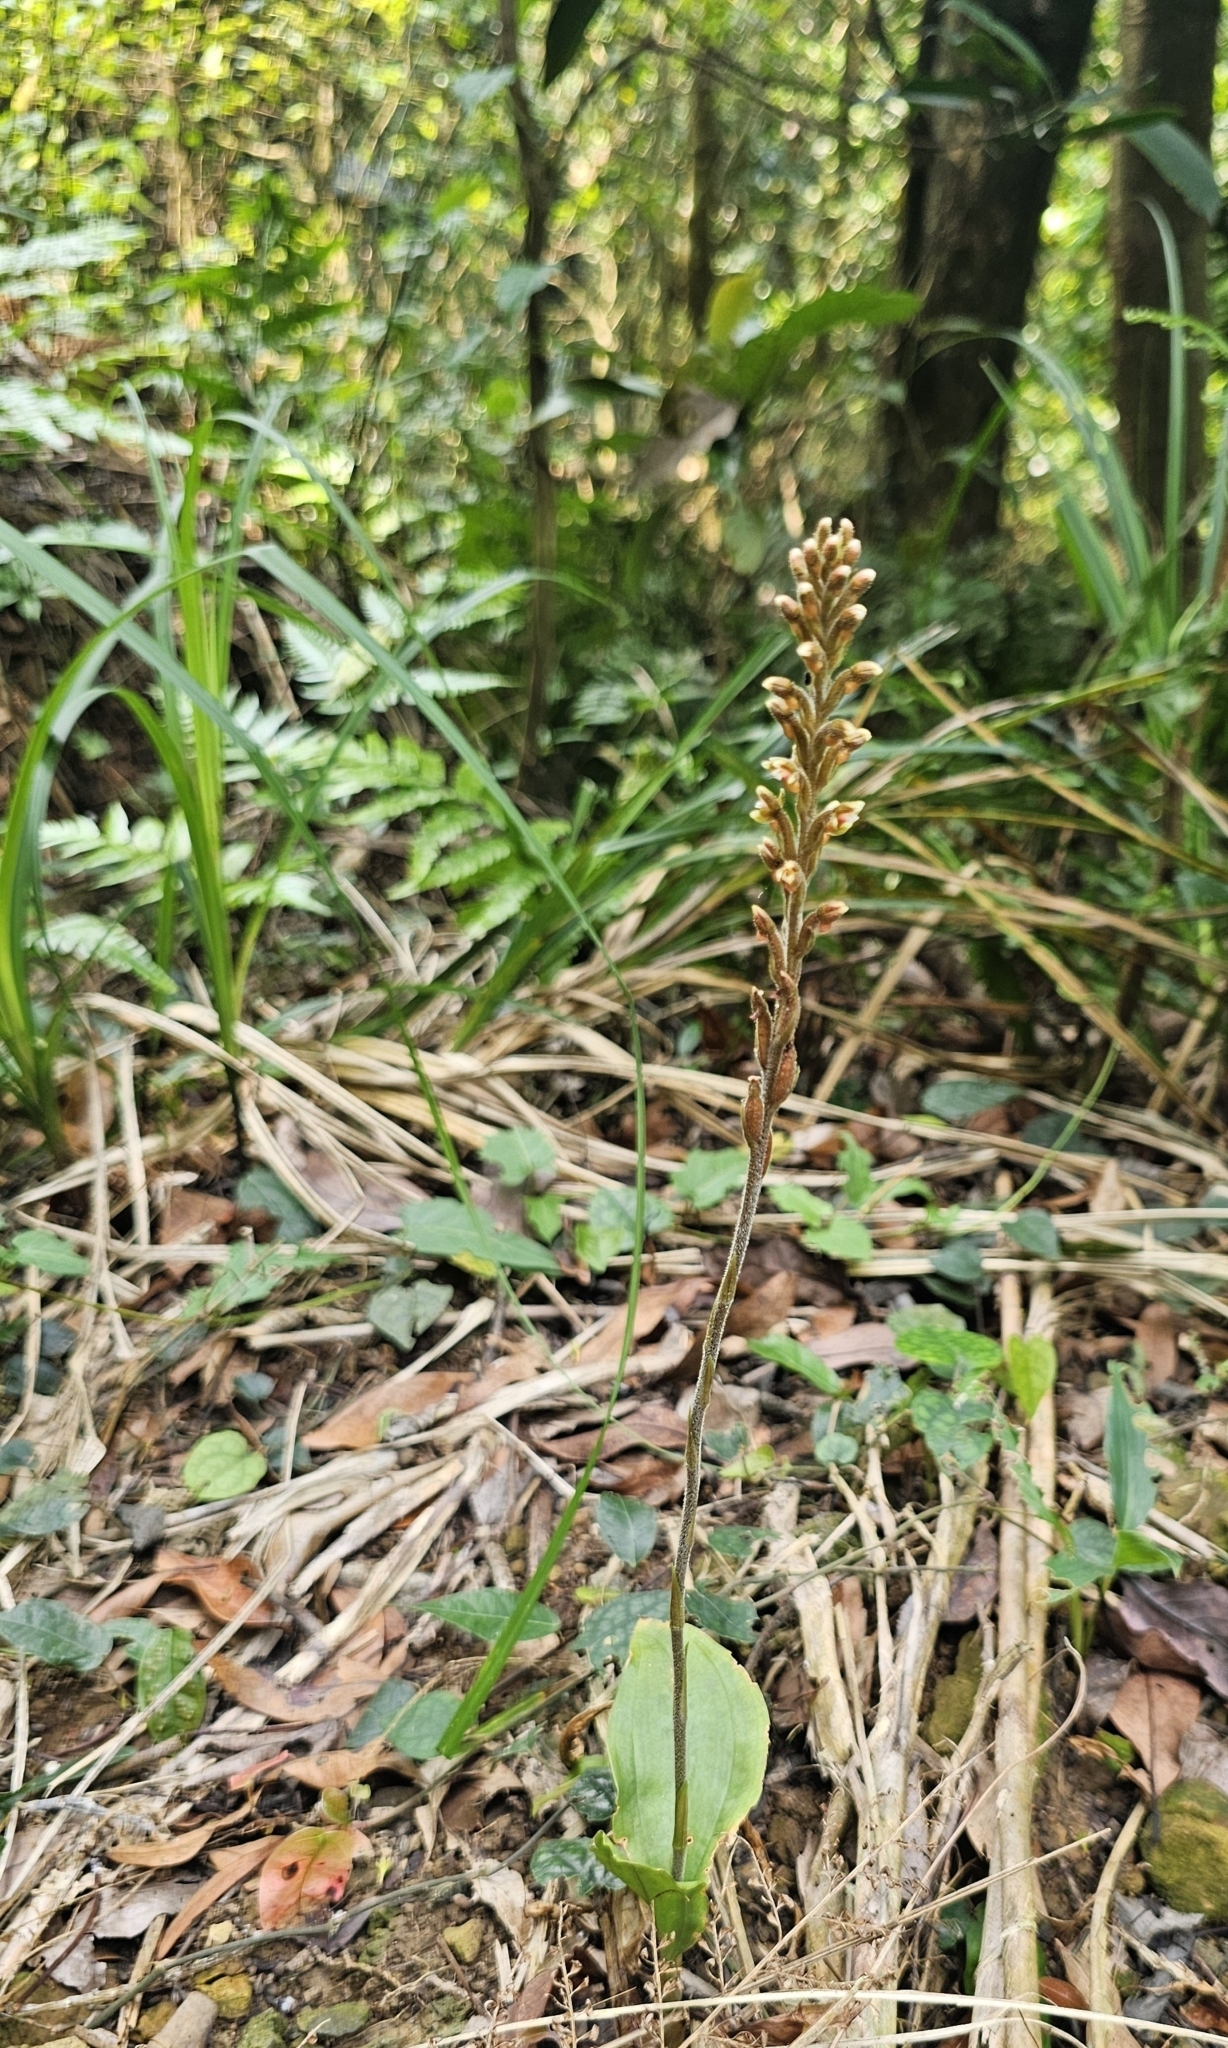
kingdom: Plantae
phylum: Tracheophyta
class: Liliopsida
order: Asparagales
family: Orchidaceae
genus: Erythrodes
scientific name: Erythrodes chinensis
